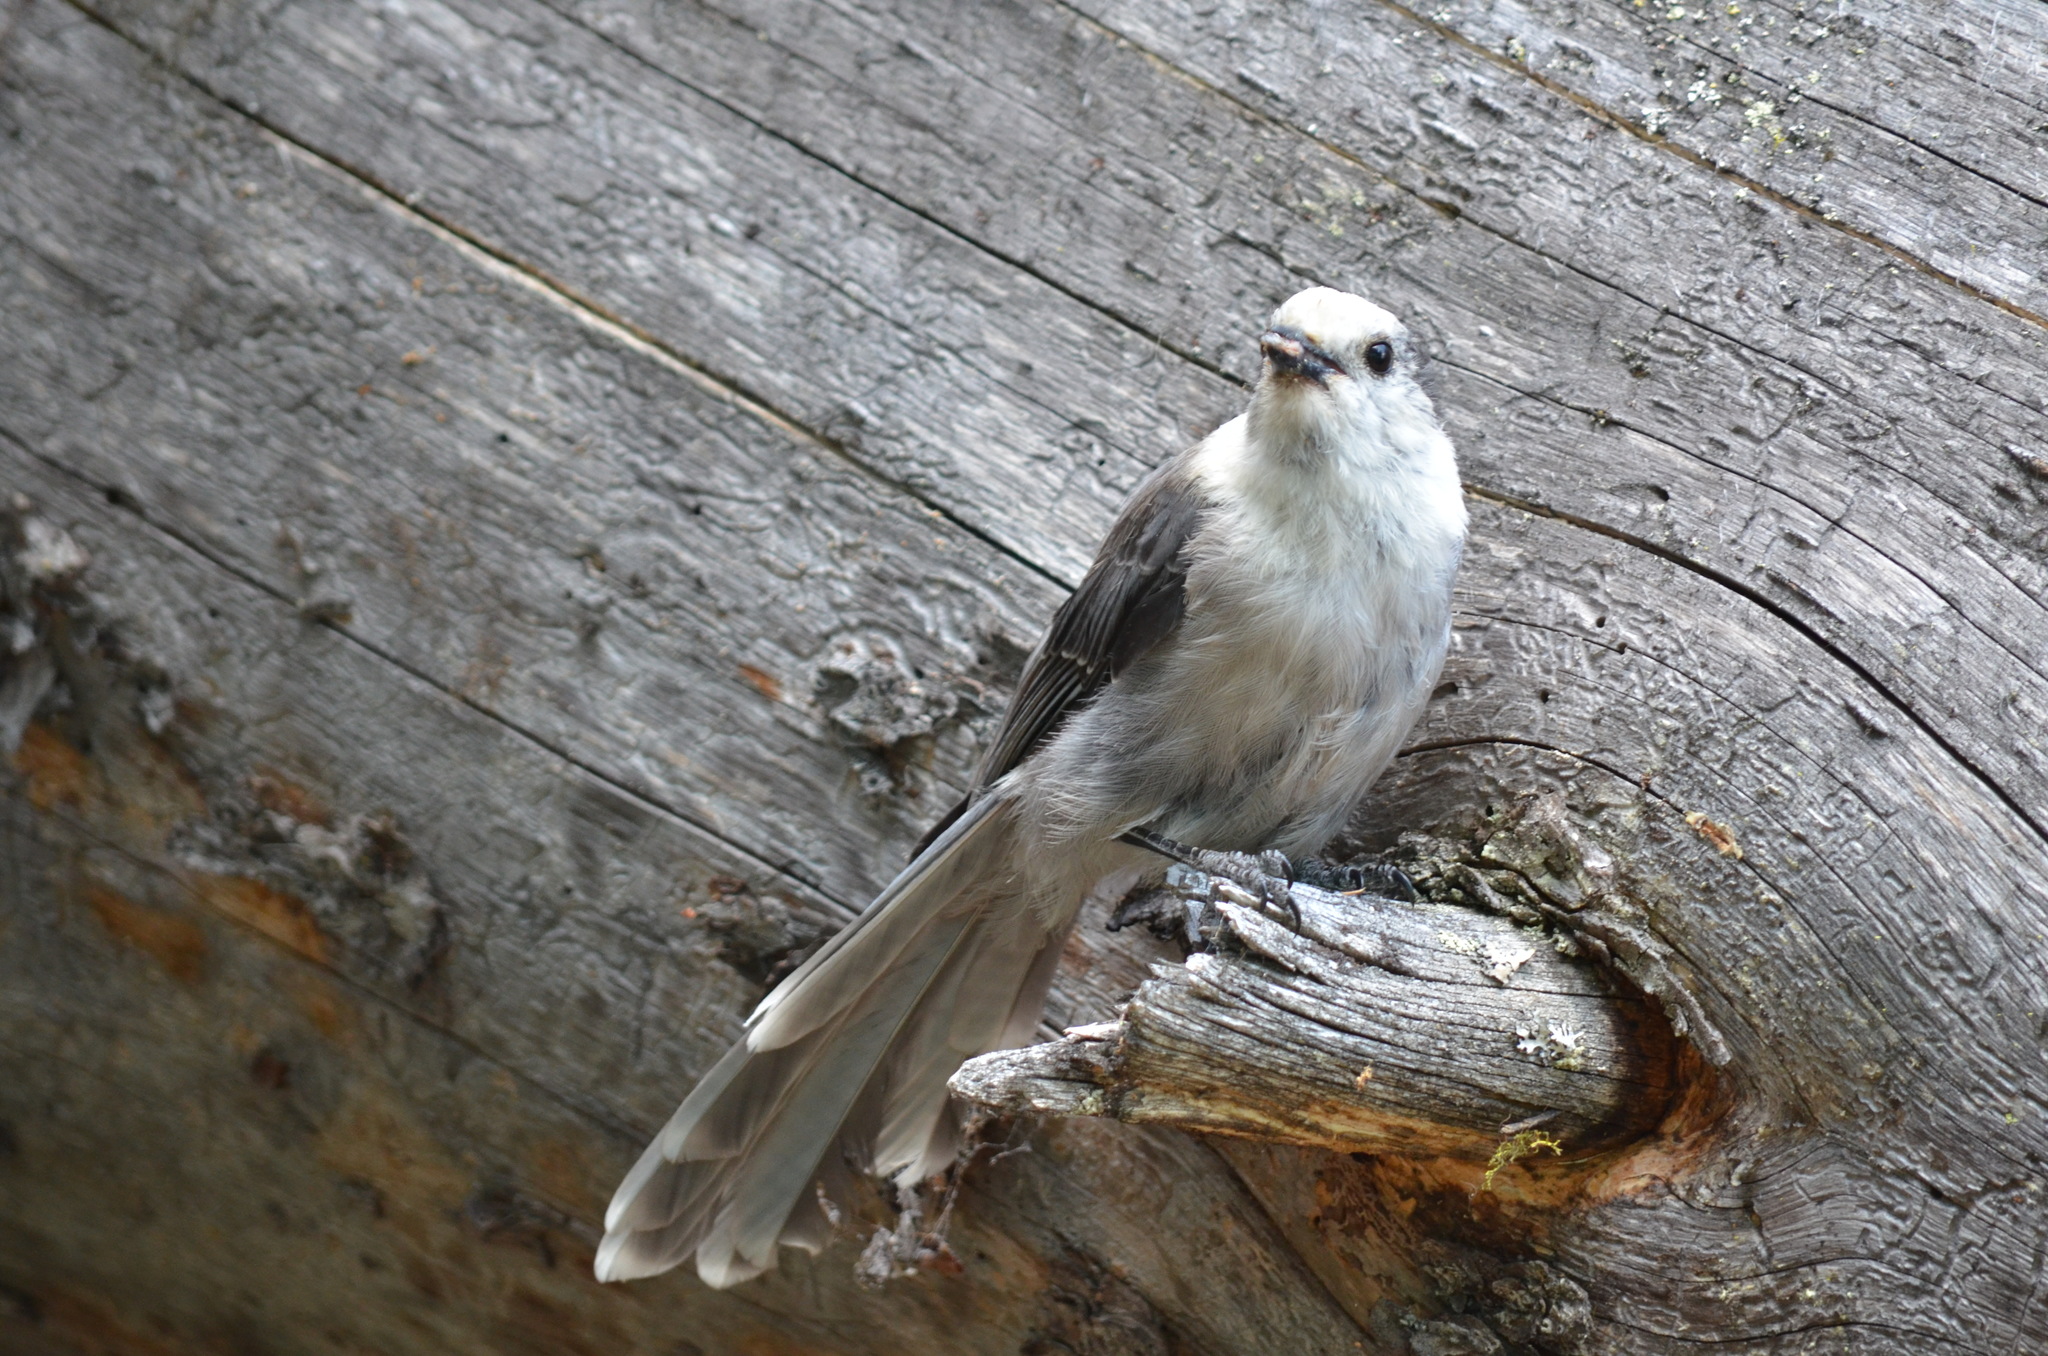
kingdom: Animalia
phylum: Chordata
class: Aves
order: Passeriformes
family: Corvidae
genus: Perisoreus
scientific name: Perisoreus canadensis
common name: Gray jay
